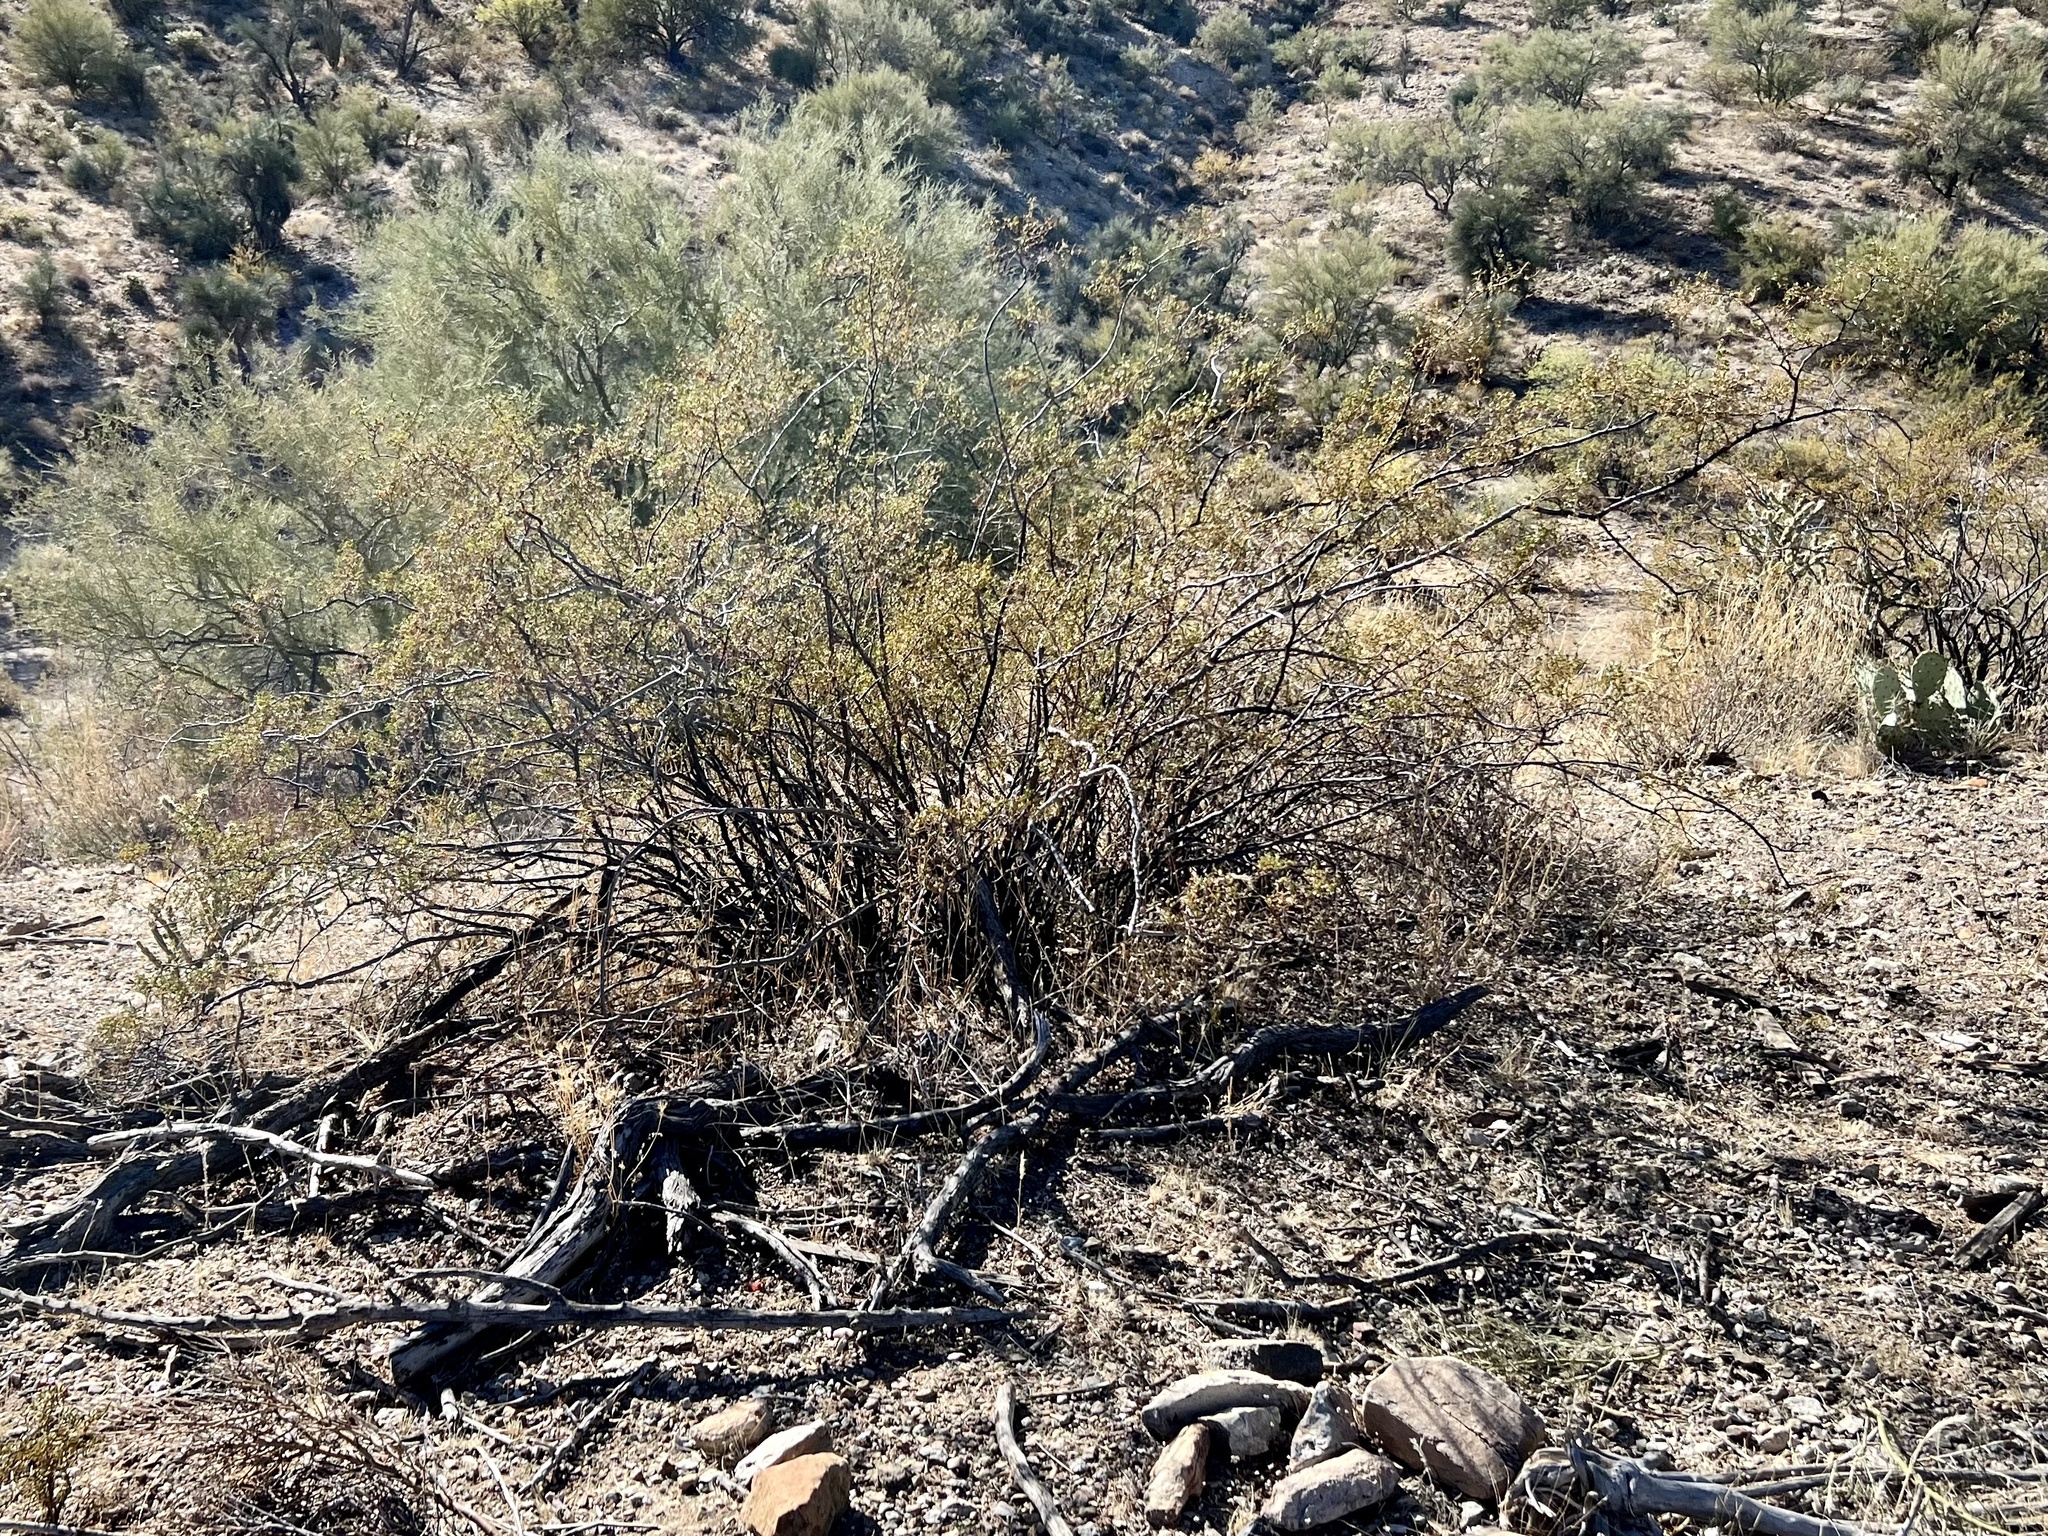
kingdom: Plantae
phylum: Tracheophyta
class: Magnoliopsida
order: Zygophyllales
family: Zygophyllaceae
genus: Larrea
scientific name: Larrea tridentata
